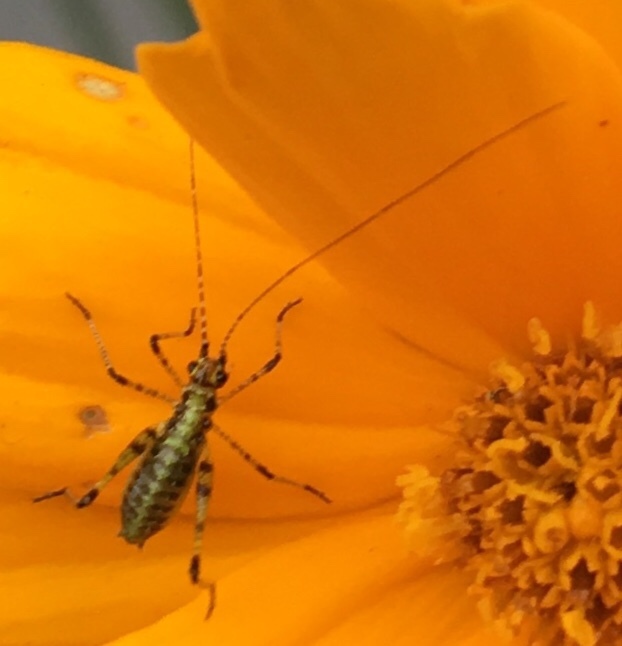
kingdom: Animalia
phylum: Arthropoda
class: Insecta
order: Orthoptera
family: Tettigoniidae
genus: Phaneroptera
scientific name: Phaneroptera nana
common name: Southern sickle bush-cricket
